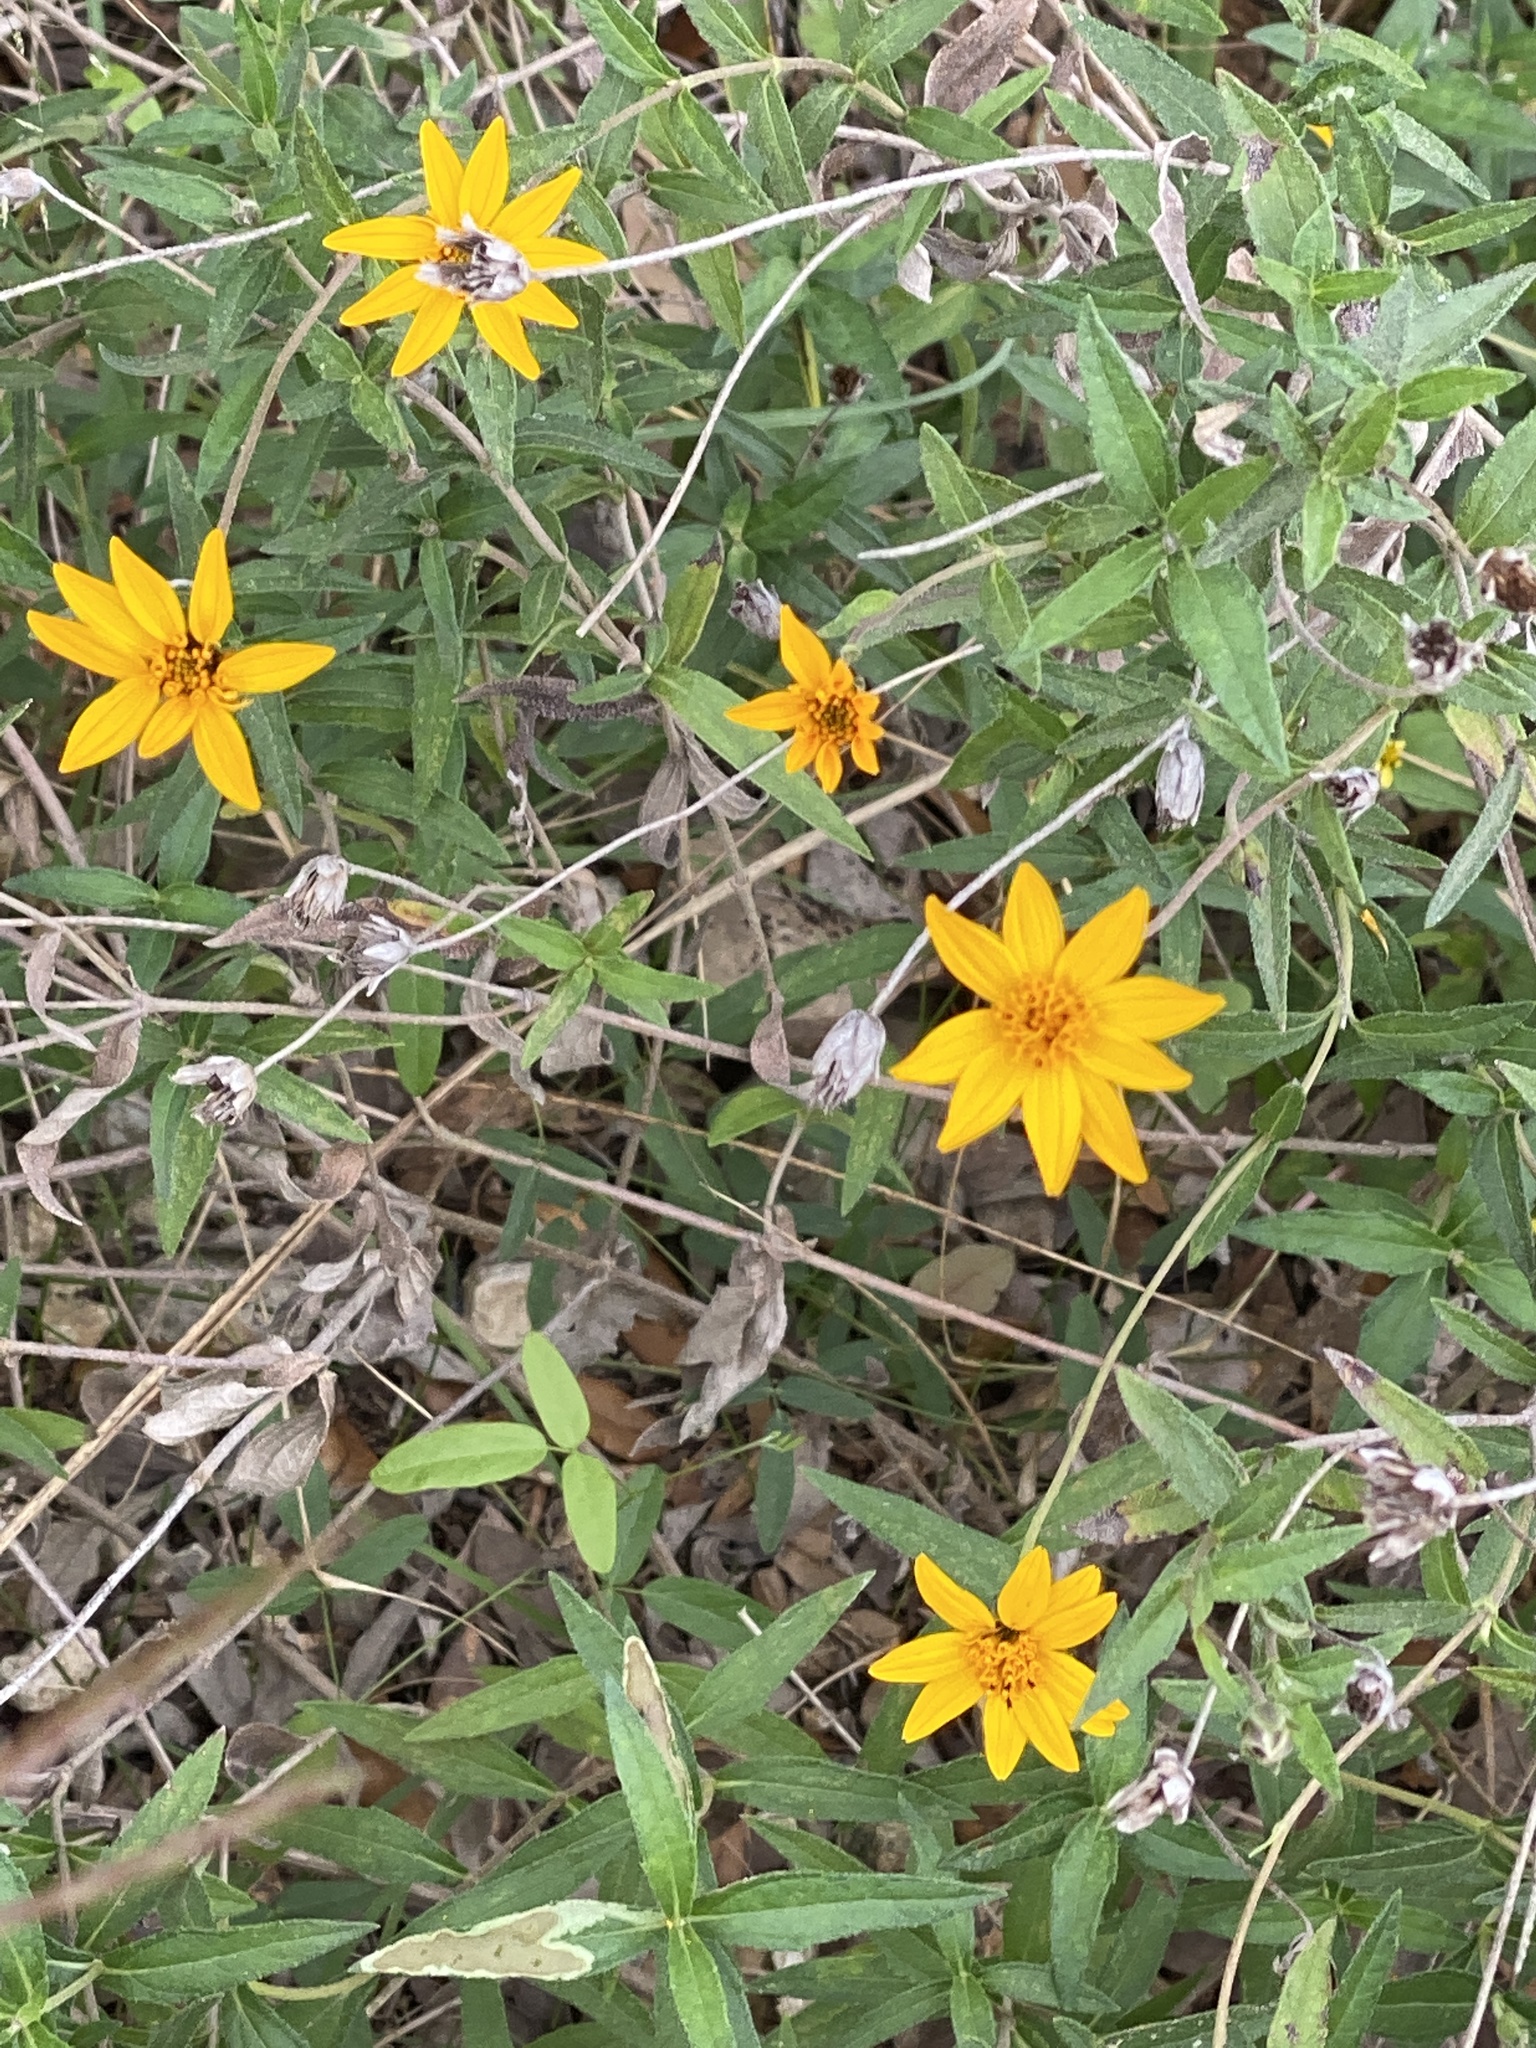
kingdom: Plantae
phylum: Tracheophyta
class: Magnoliopsida
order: Asterales
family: Asteraceae
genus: Wedelia
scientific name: Wedelia acapulcensis
